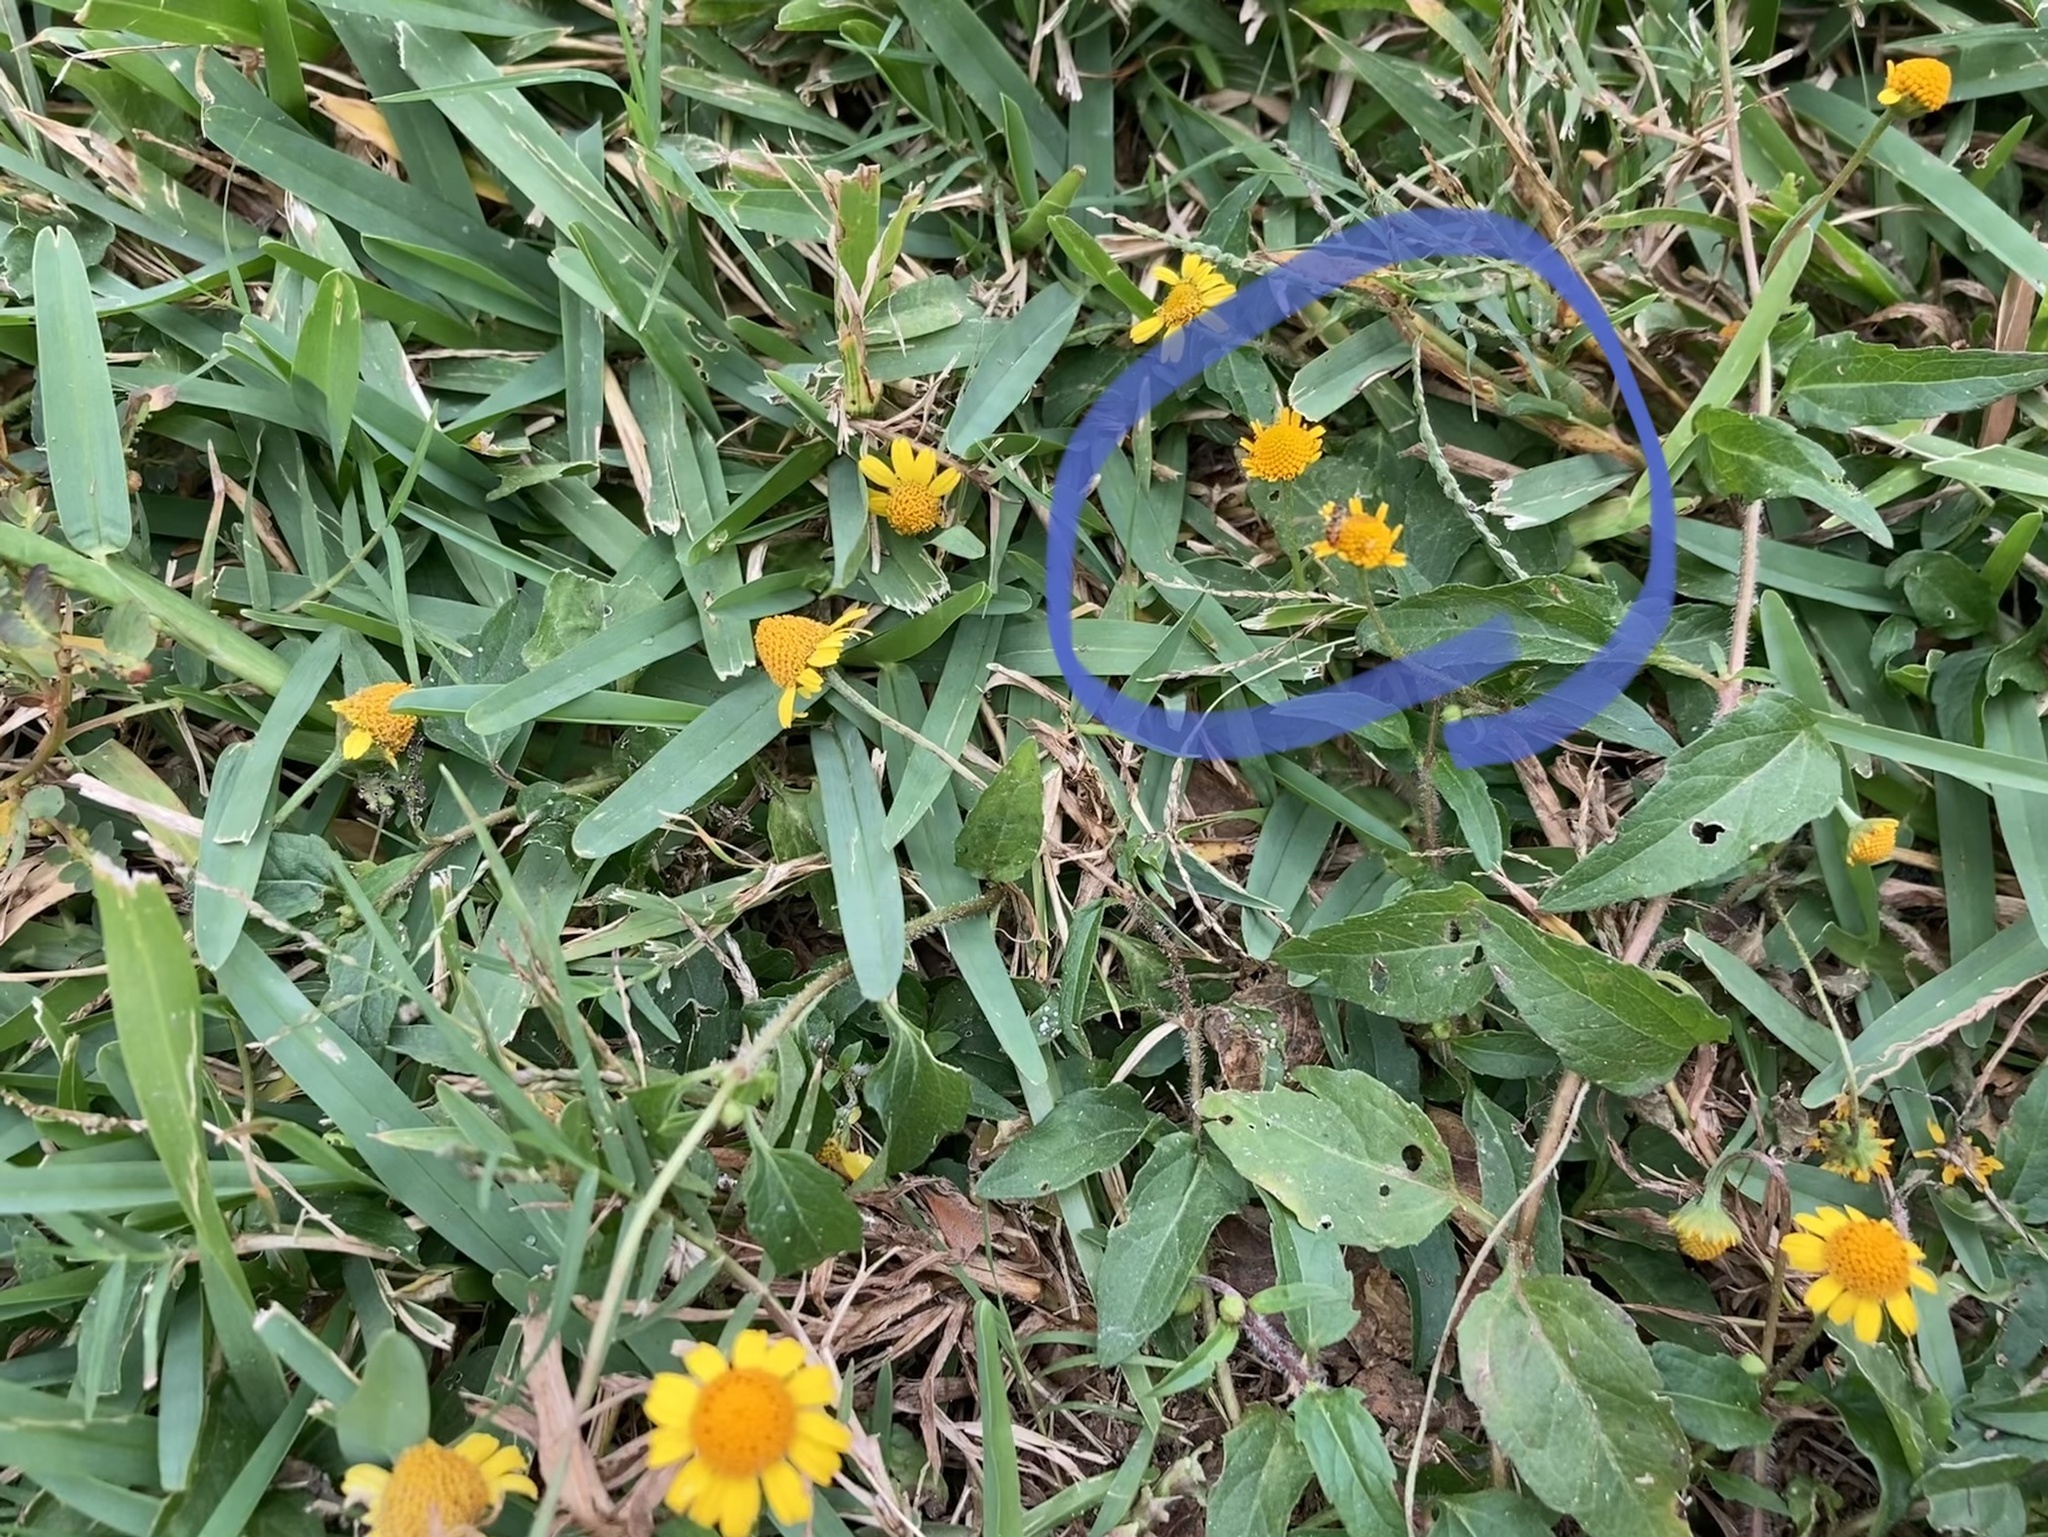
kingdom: Animalia
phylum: Arthropoda
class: Insecta
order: Diptera
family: Syrphidae
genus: Toxomerus
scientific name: Toxomerus marginatus
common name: Syrphid fly
